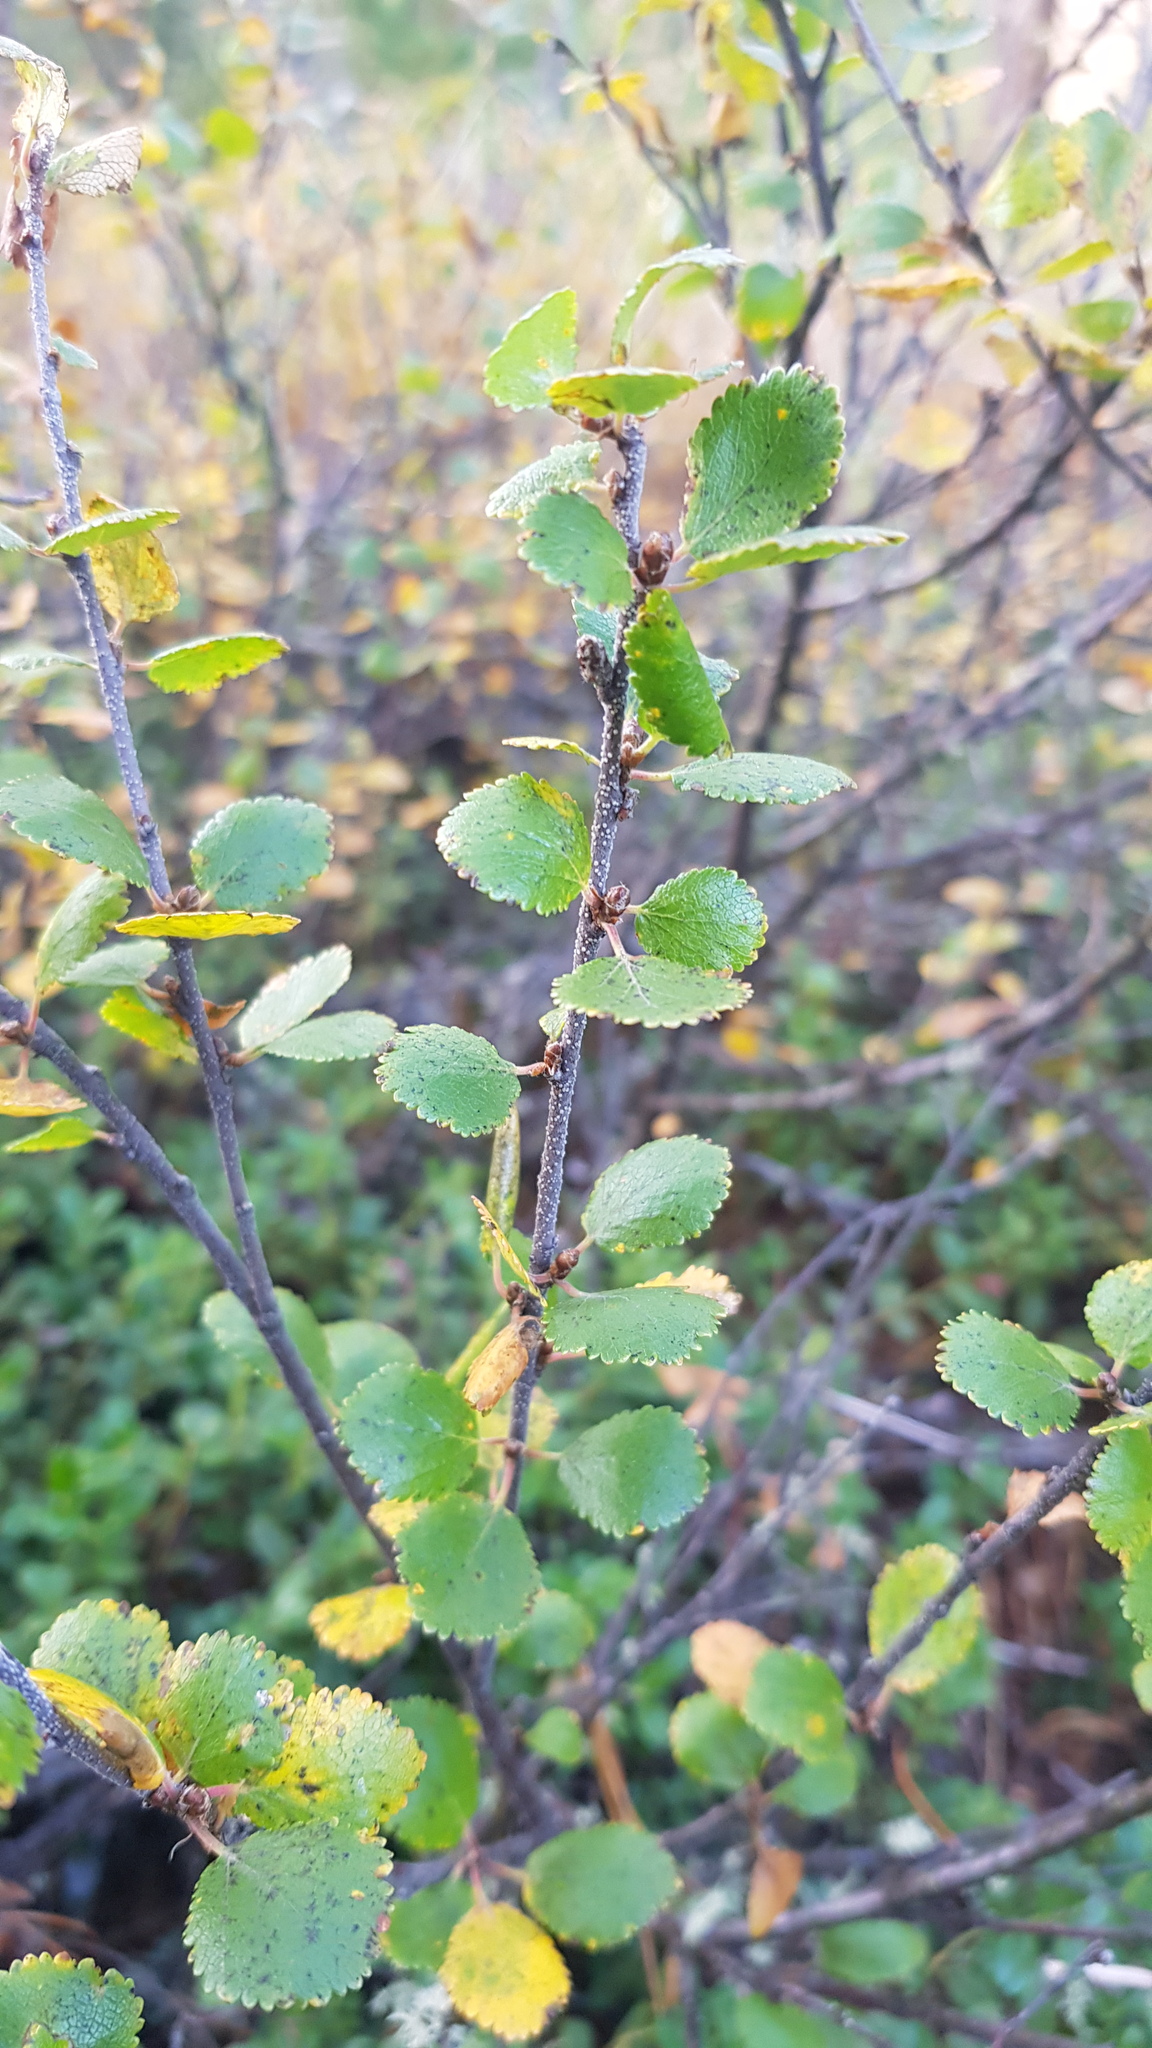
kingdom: Plantae
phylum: Tracheophyta
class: Magnoliopsida
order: Fagales
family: Betulaceae
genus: Betula
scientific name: Betula glandulosa
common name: Dwarf birch
